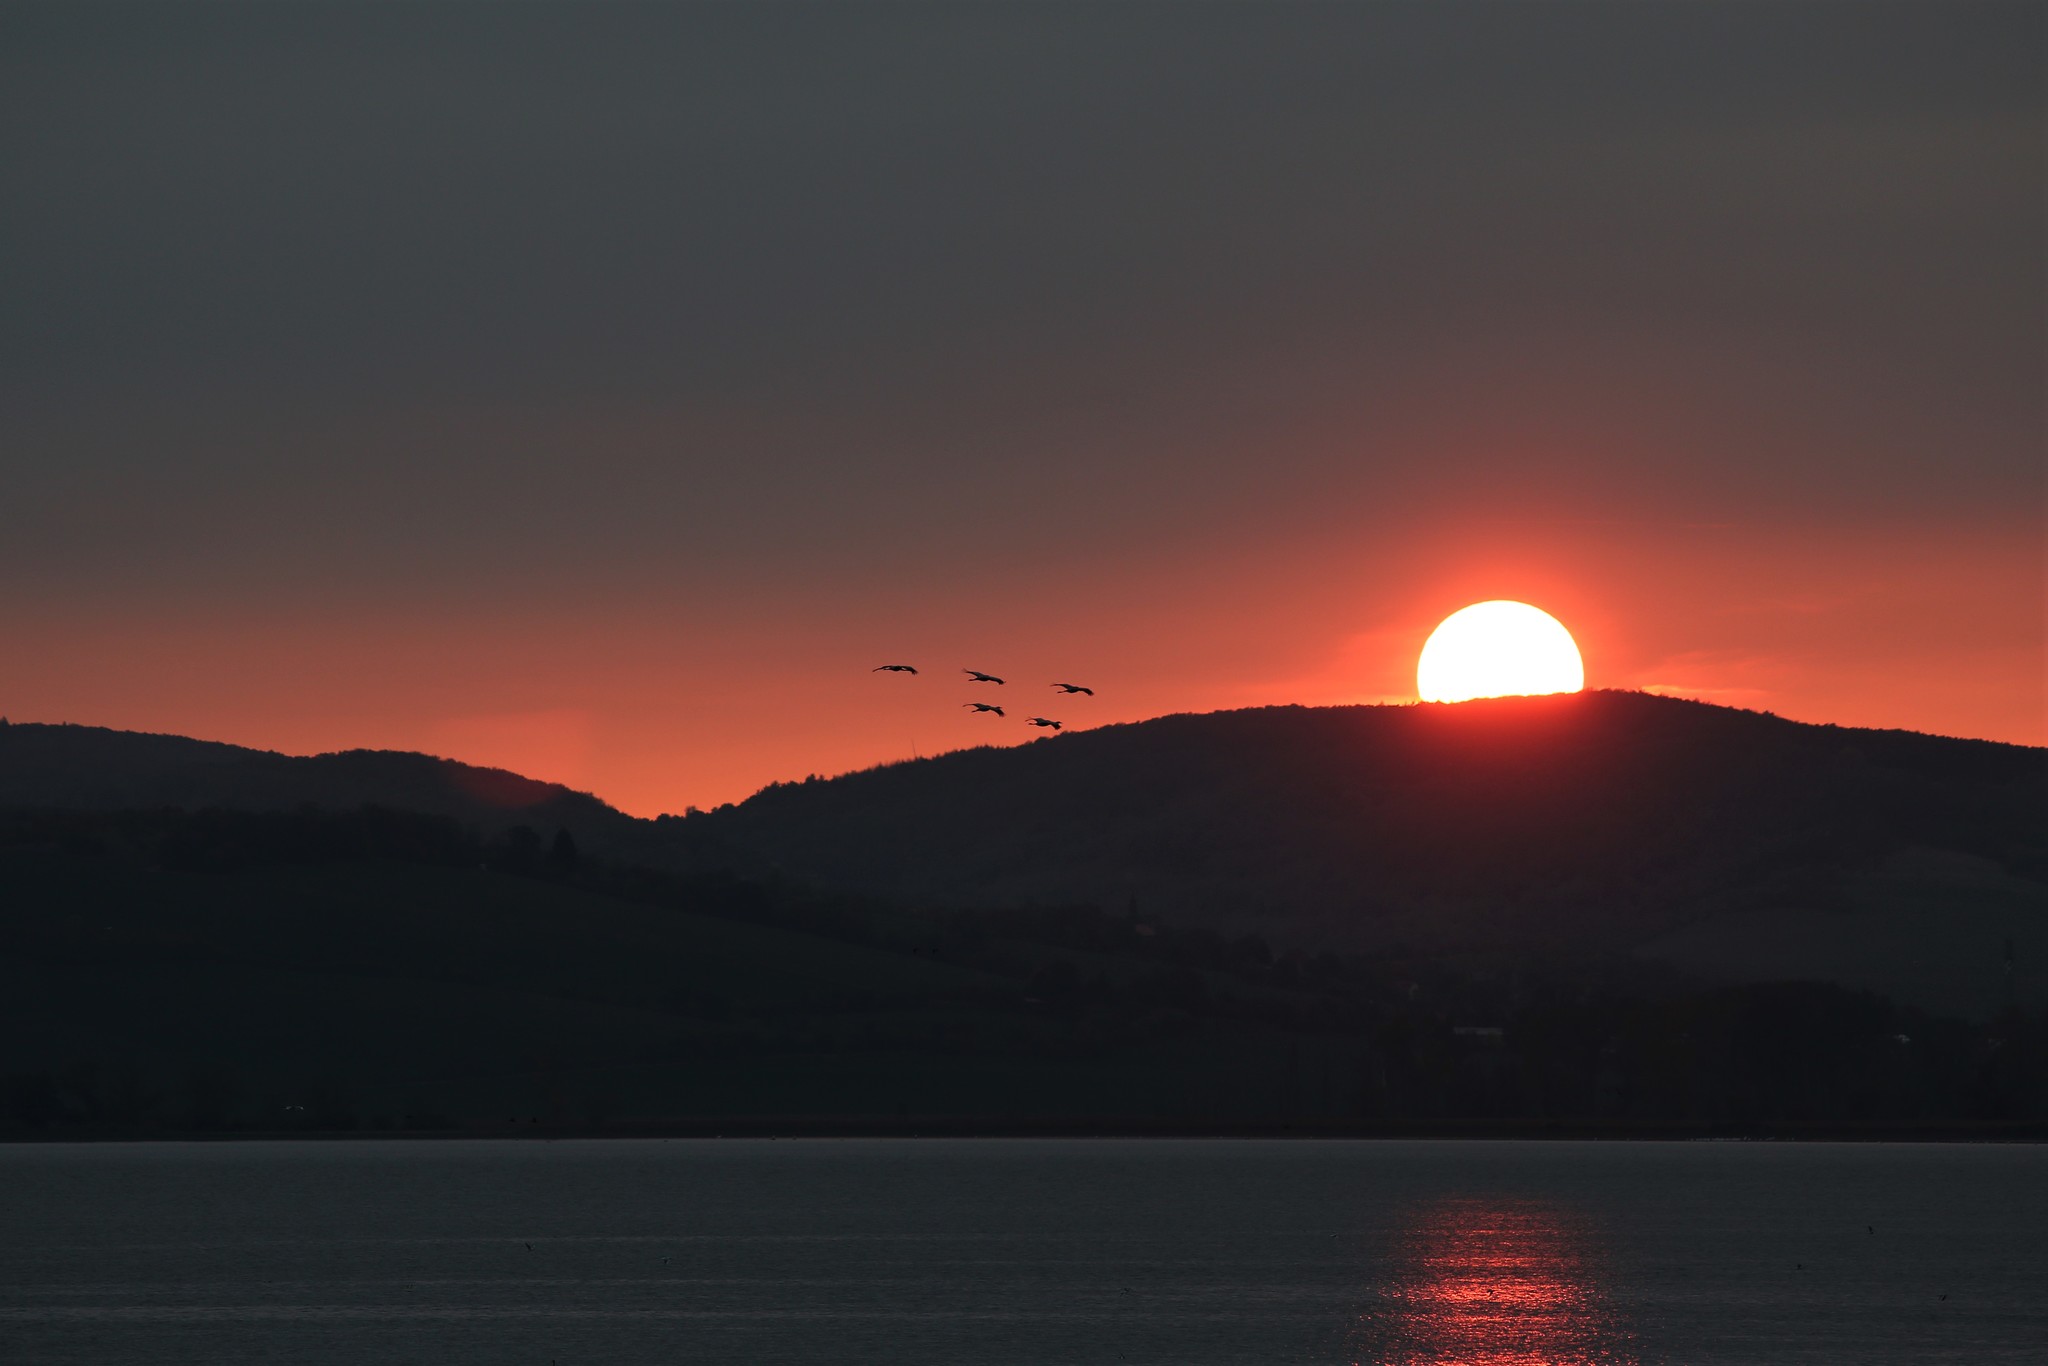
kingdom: Animalia
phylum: Chordata
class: Aves
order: Gruiformes
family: Gruidae
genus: Grus
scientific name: Grus grus
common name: Common crane
